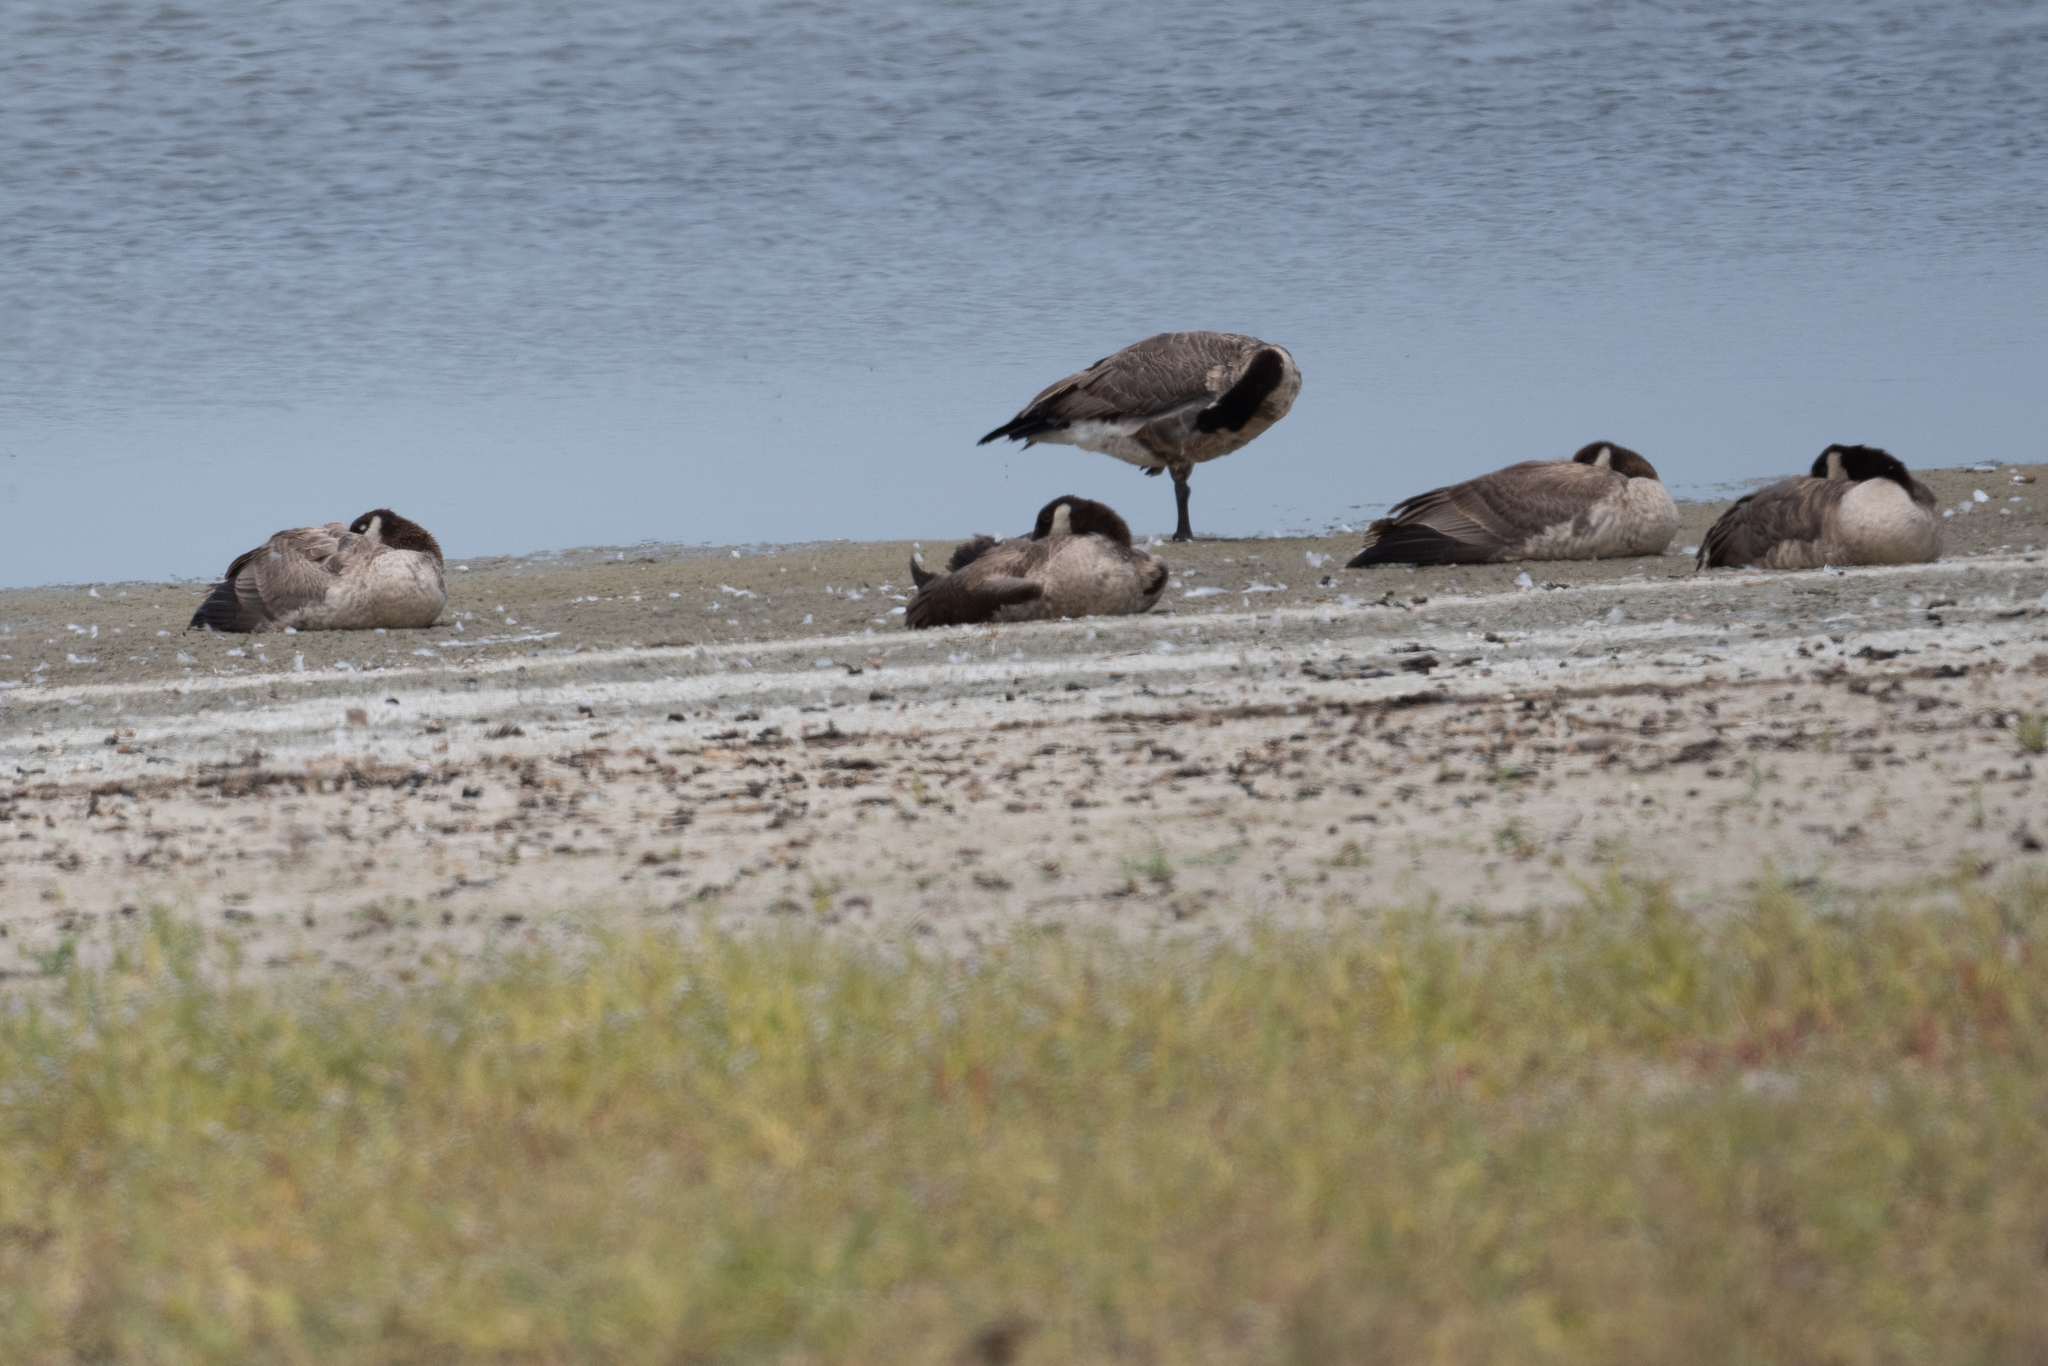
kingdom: Animalia
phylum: Chordata
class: Aves
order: Anseriformes
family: Anatidae
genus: Branta
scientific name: Branta canadensis
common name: Canada goose
